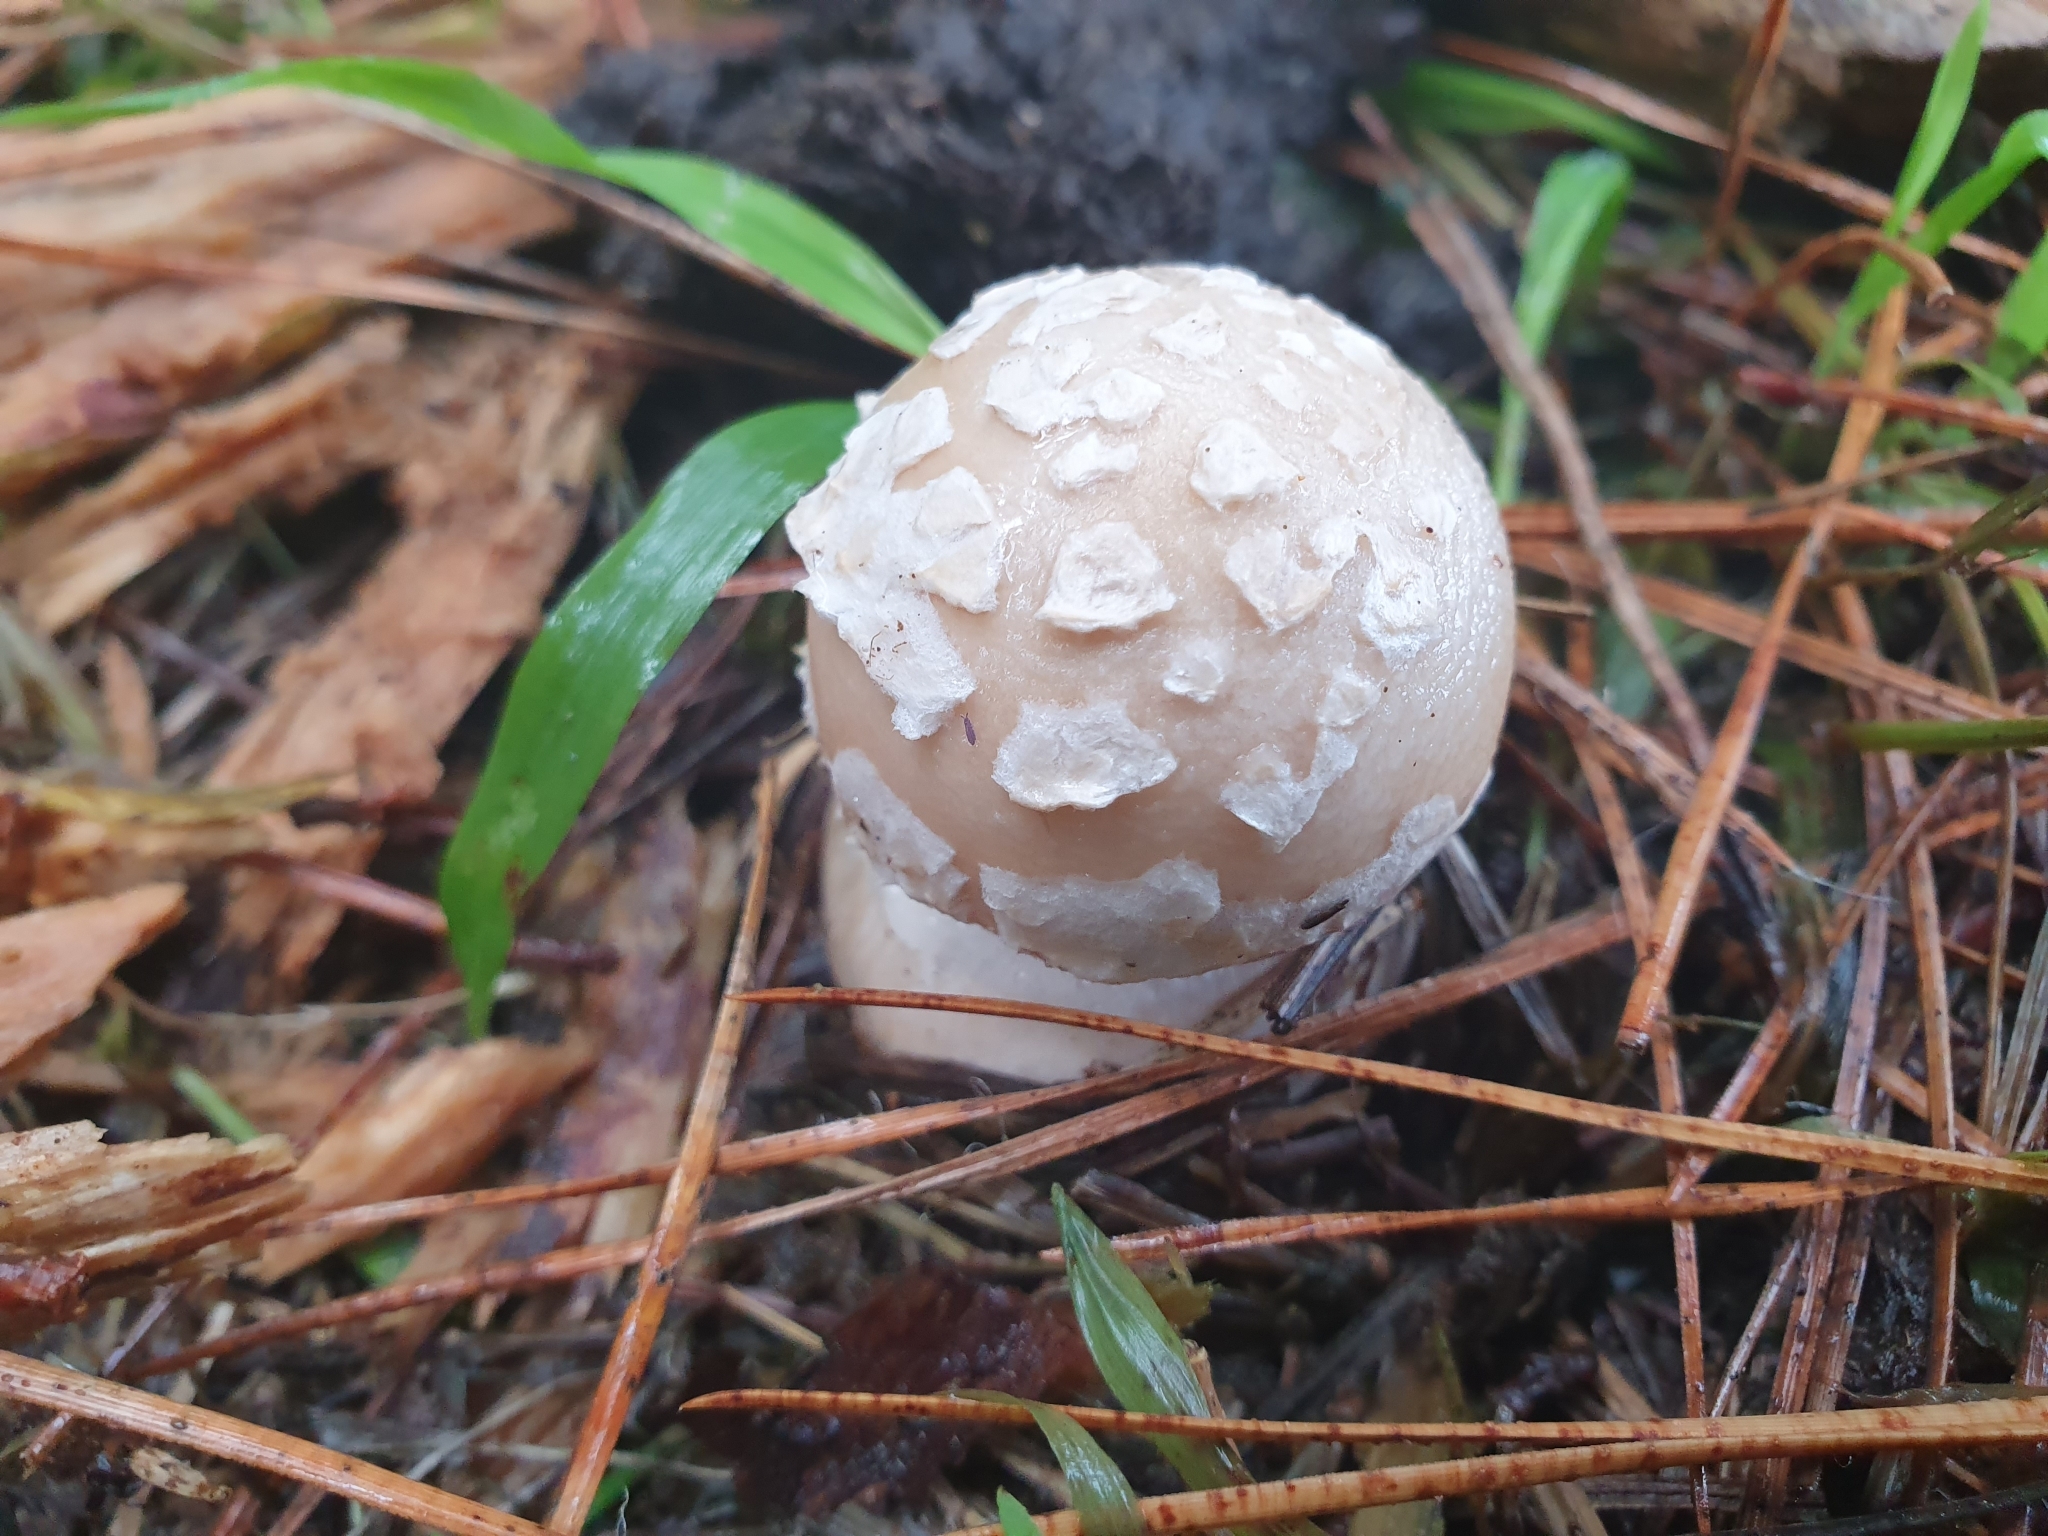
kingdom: Fungi
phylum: Basidiomycota
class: Agaricomycetes
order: Agaricales
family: Amanitaceae
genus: Amanita
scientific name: Amanita gemmata
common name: Jewelled amanita
